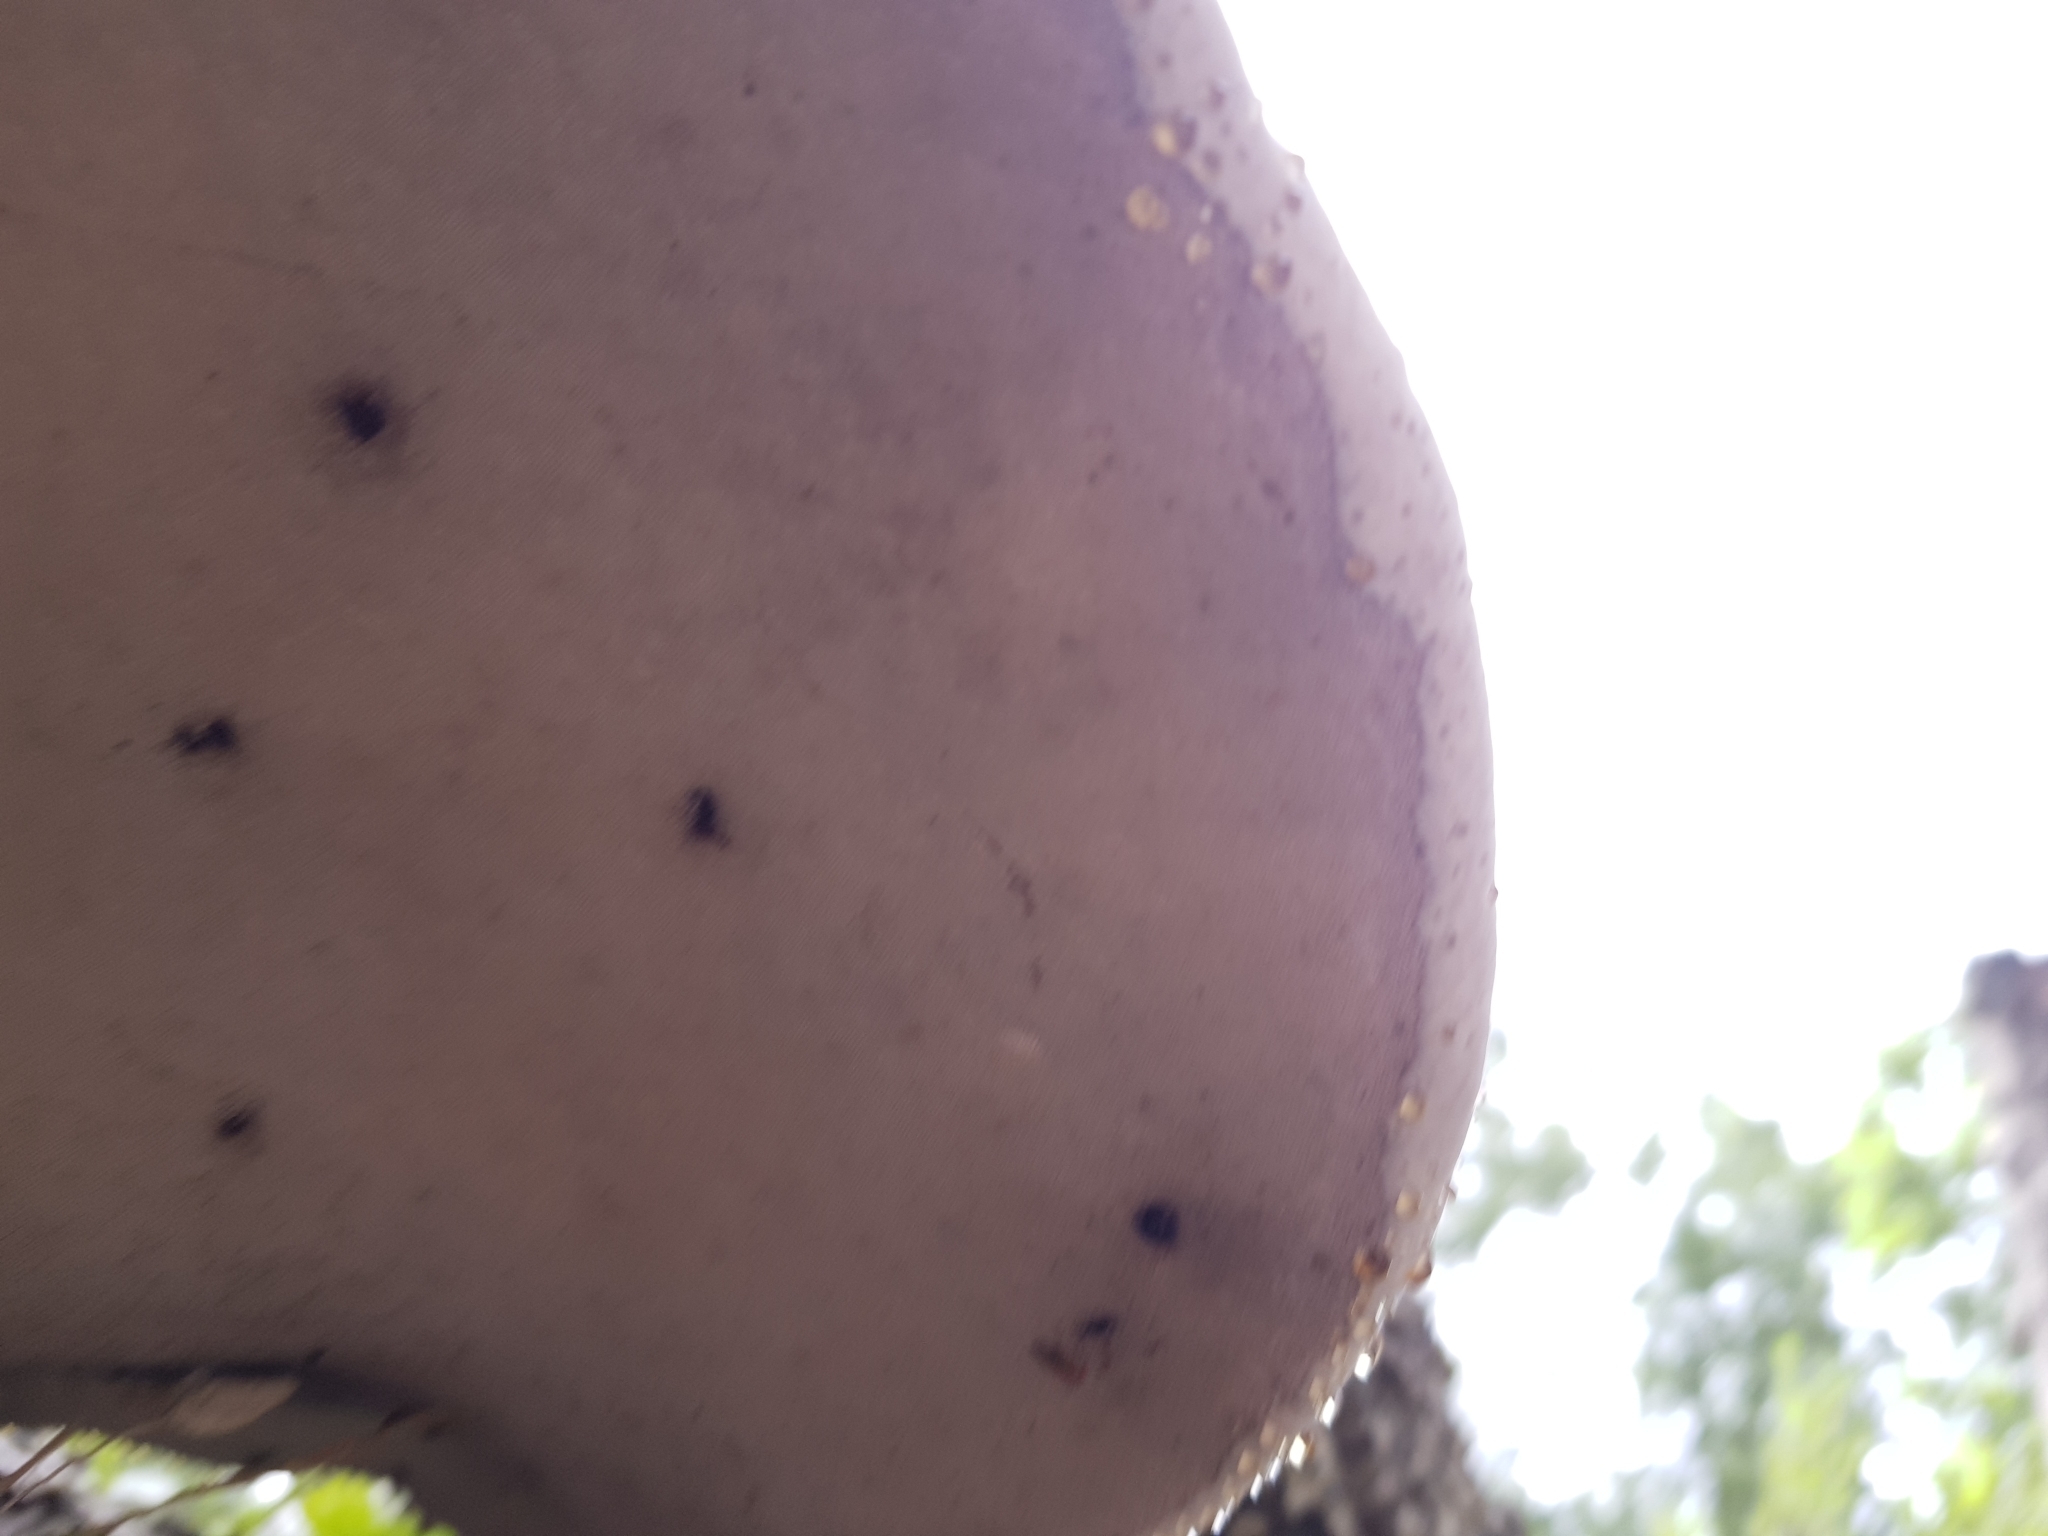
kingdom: Fungi
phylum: Basidiomycota
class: Agaricomycetes
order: Polyporales
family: Polyporaceae
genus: Fomes
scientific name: Fomes fomentarius
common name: Hoof fungus
